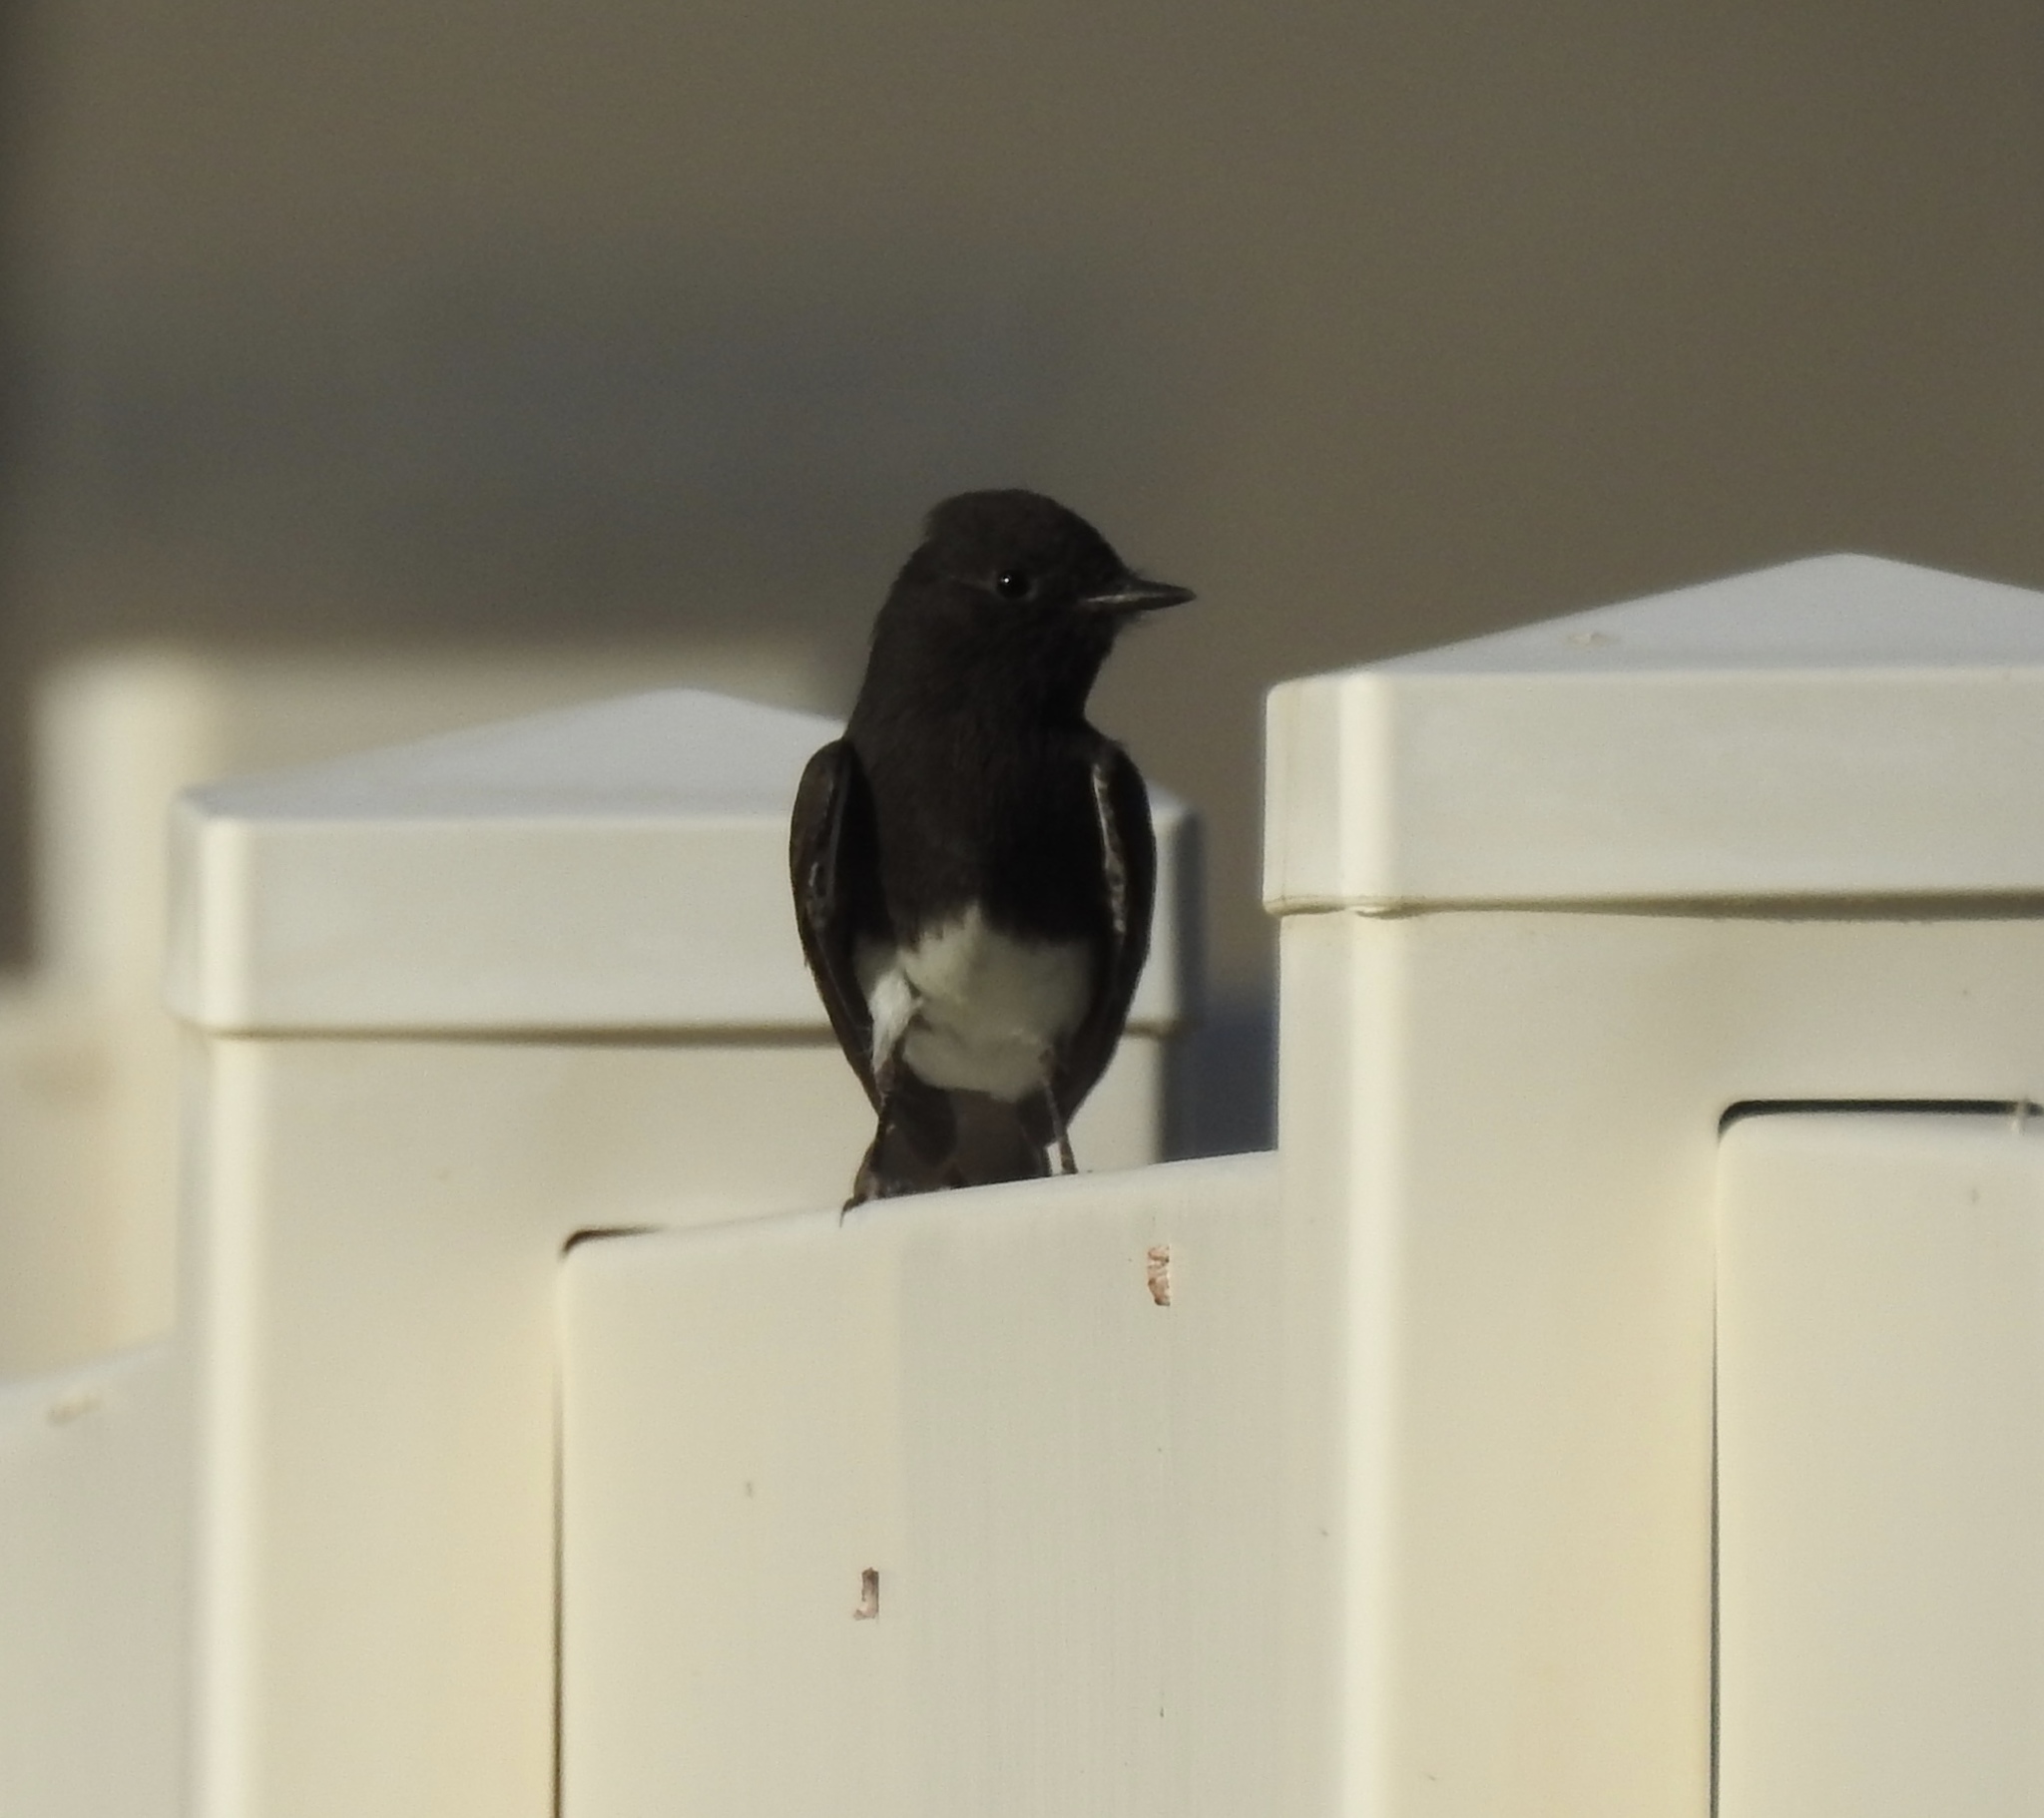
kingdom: Animalia
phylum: Chordata
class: Aves
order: Passeriformes
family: Tyrannidae
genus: Sayornis
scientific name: Sayornis nigricans
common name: Black phoebe
